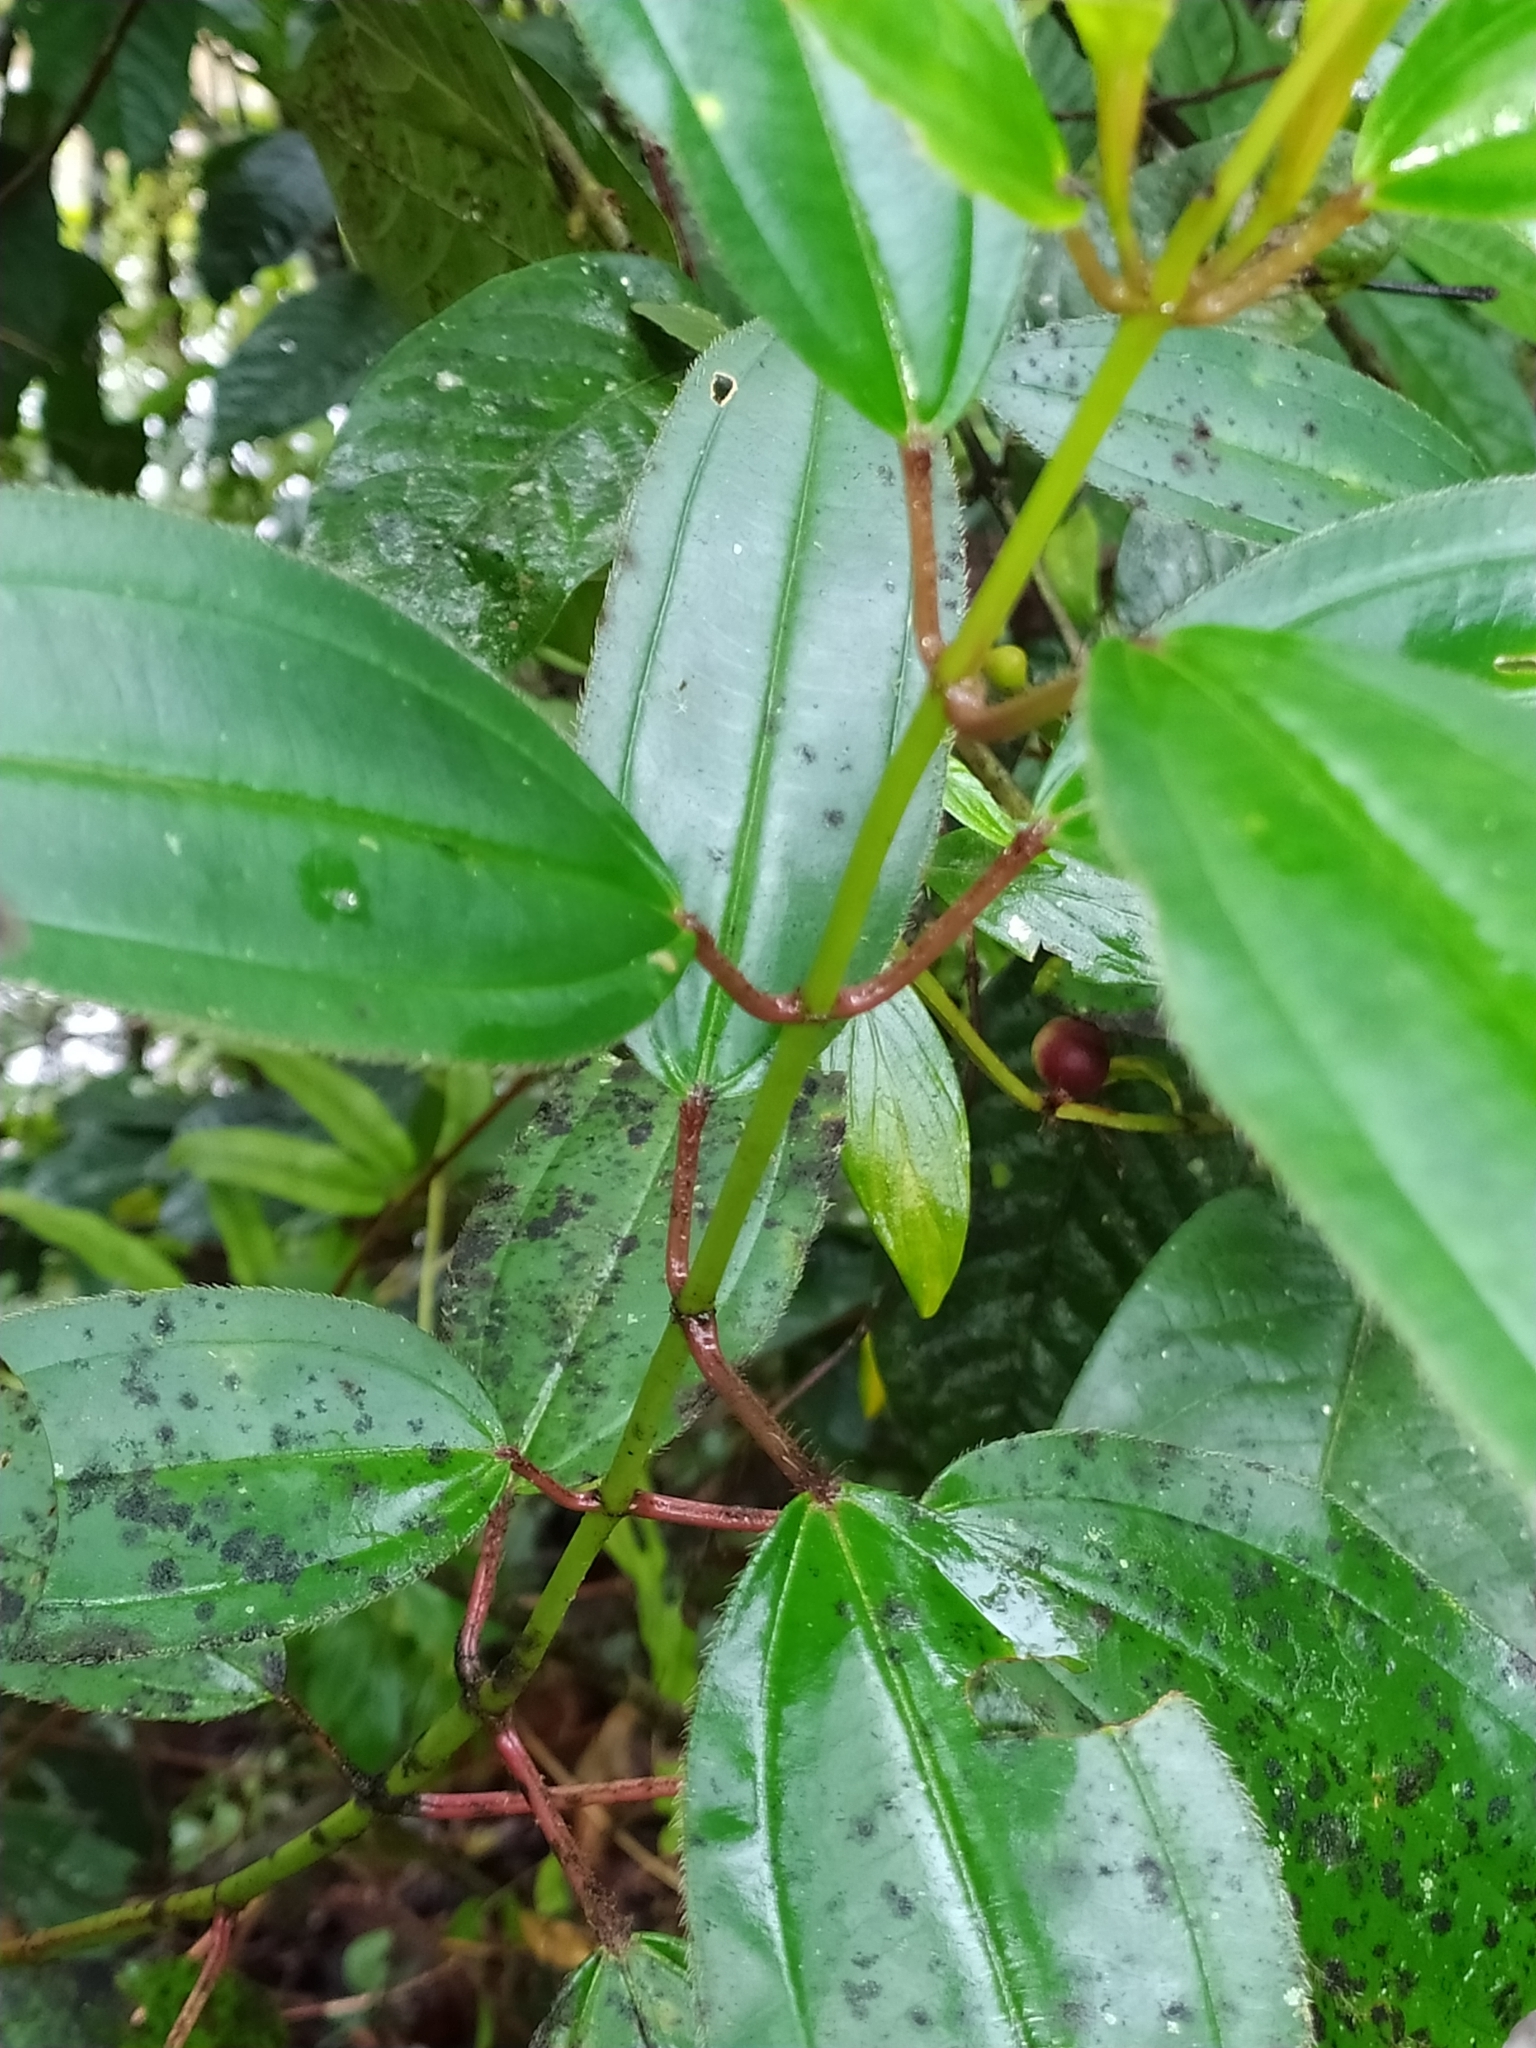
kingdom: Plantae
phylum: Tracheophyta
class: Magnoliopsida
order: Myrtales
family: Melastomataceae
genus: Miconia
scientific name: Miconia ciliata
